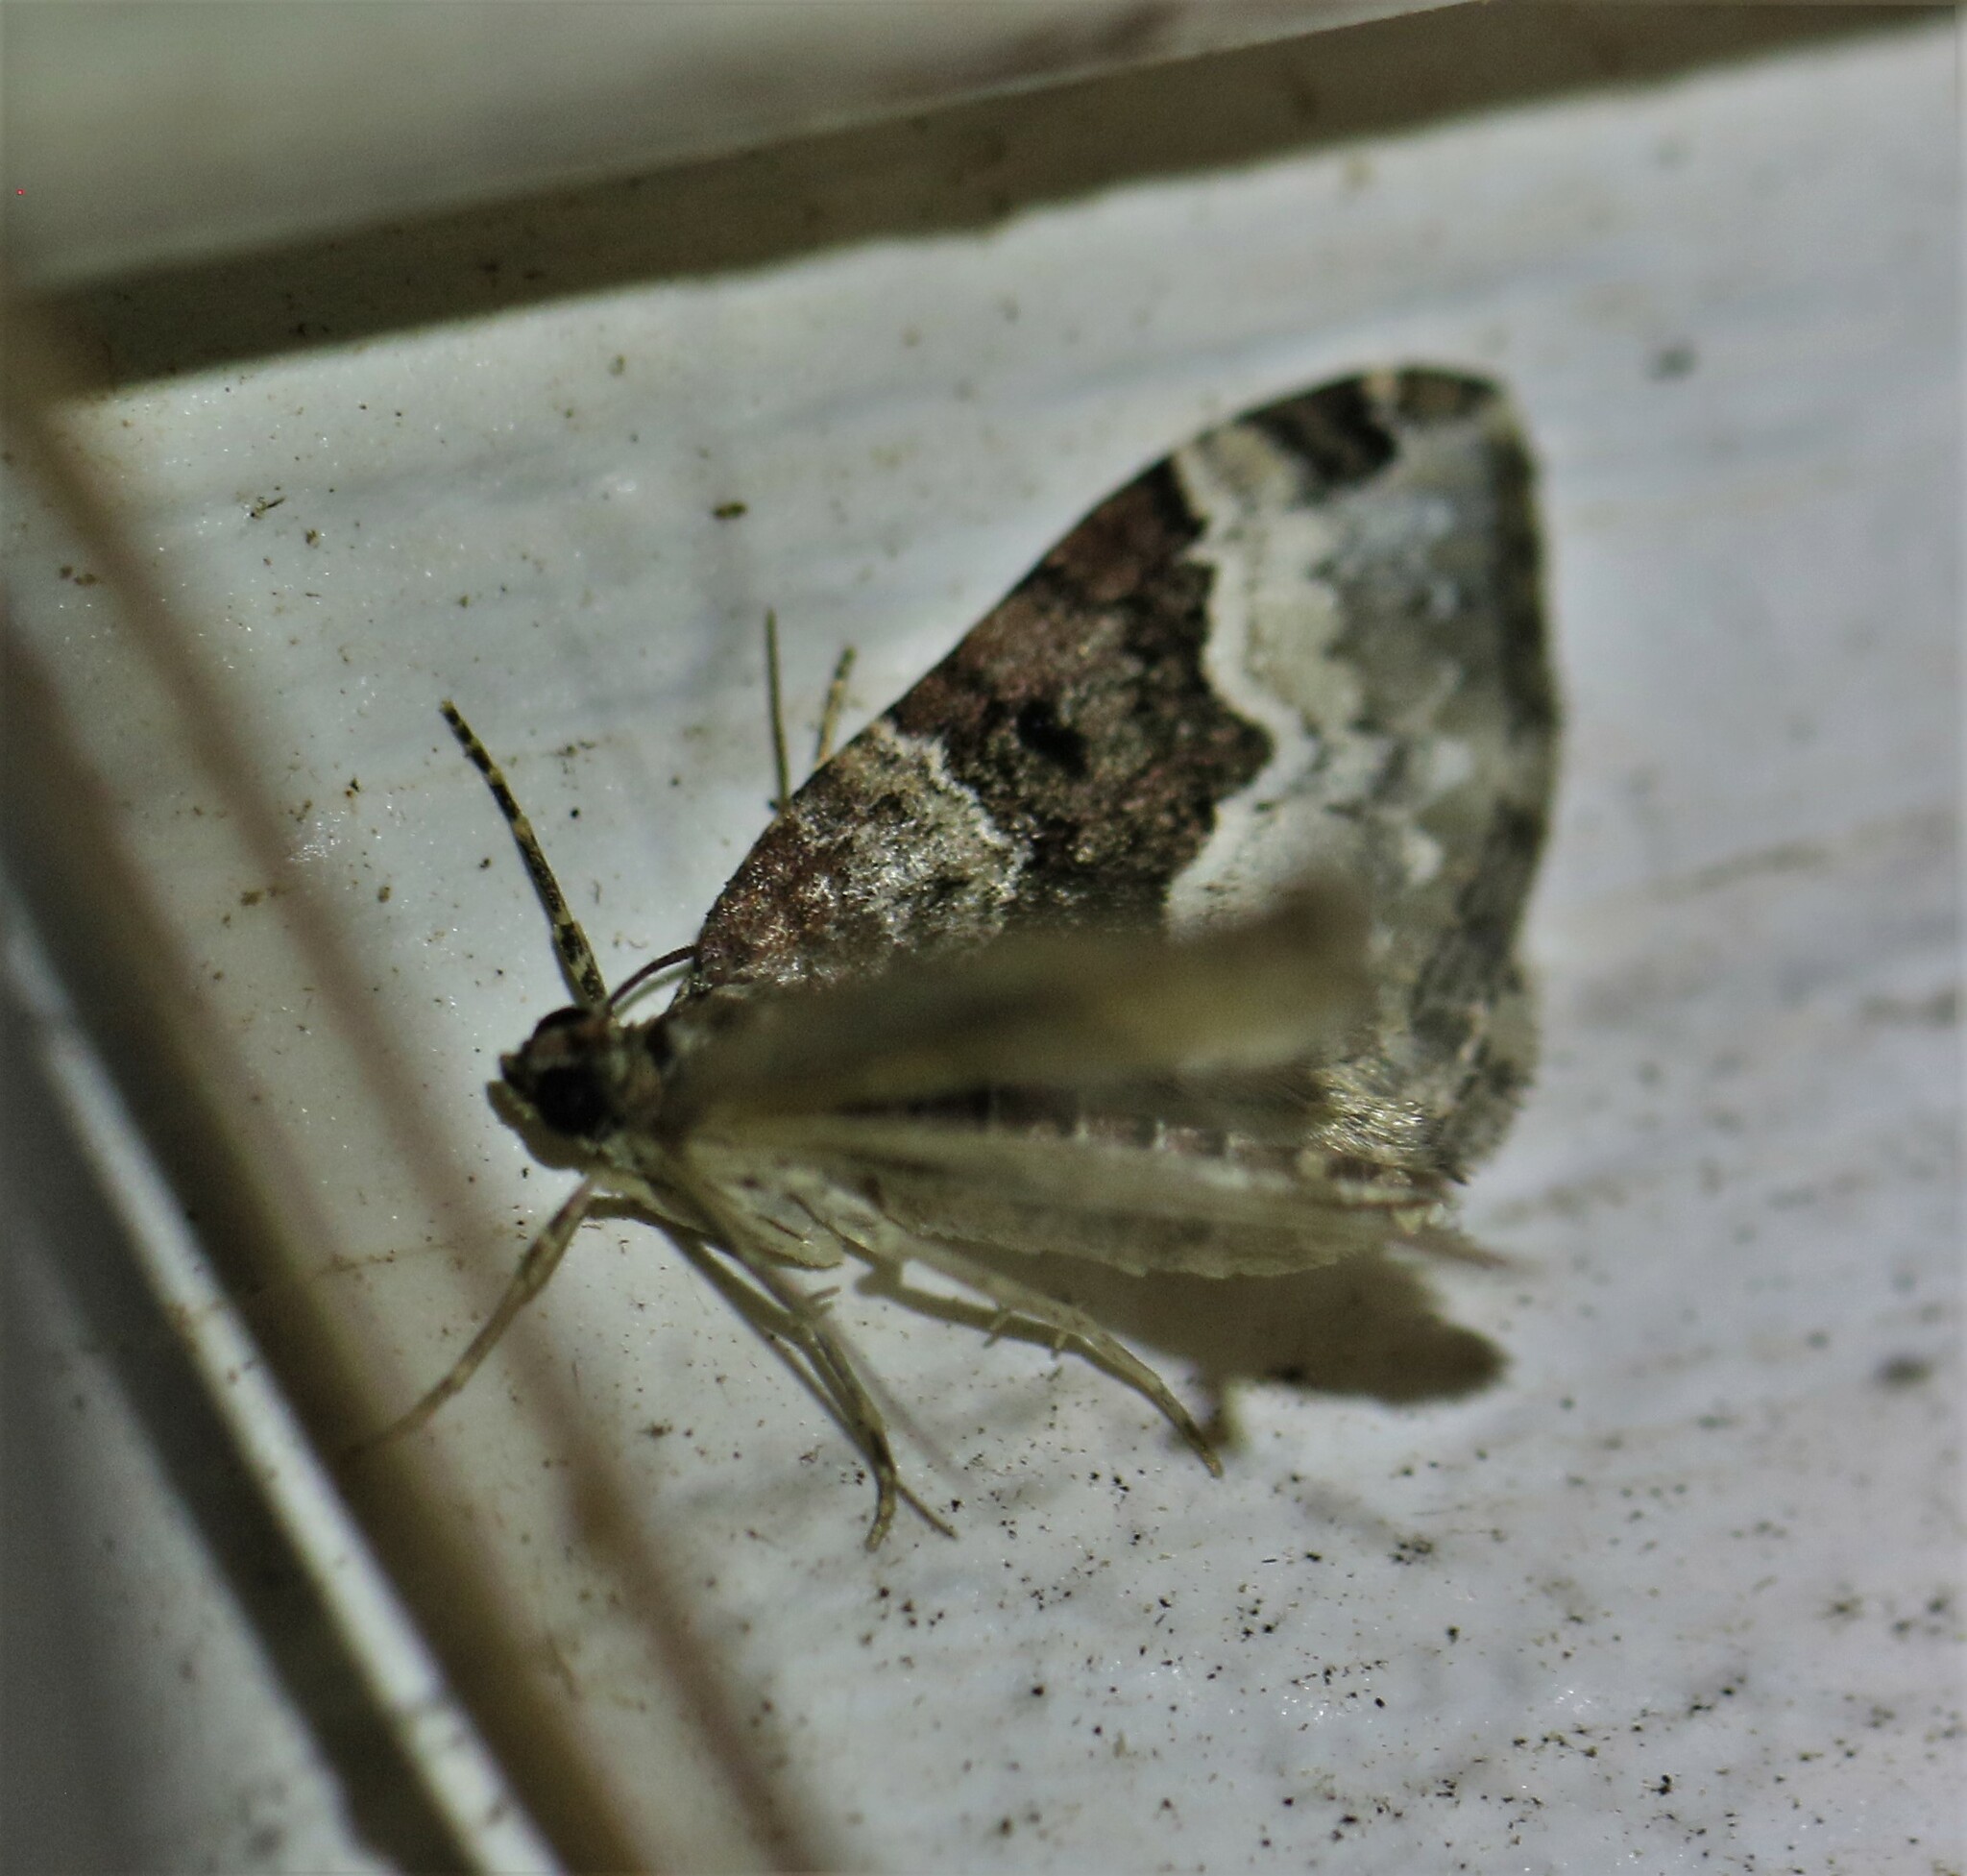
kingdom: Animalia
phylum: Arthropoda
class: Insecta
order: Lepidoptera
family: Geometridae
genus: Euphyia
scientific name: Euphyia intermediata
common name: Sharp-angled carpet
